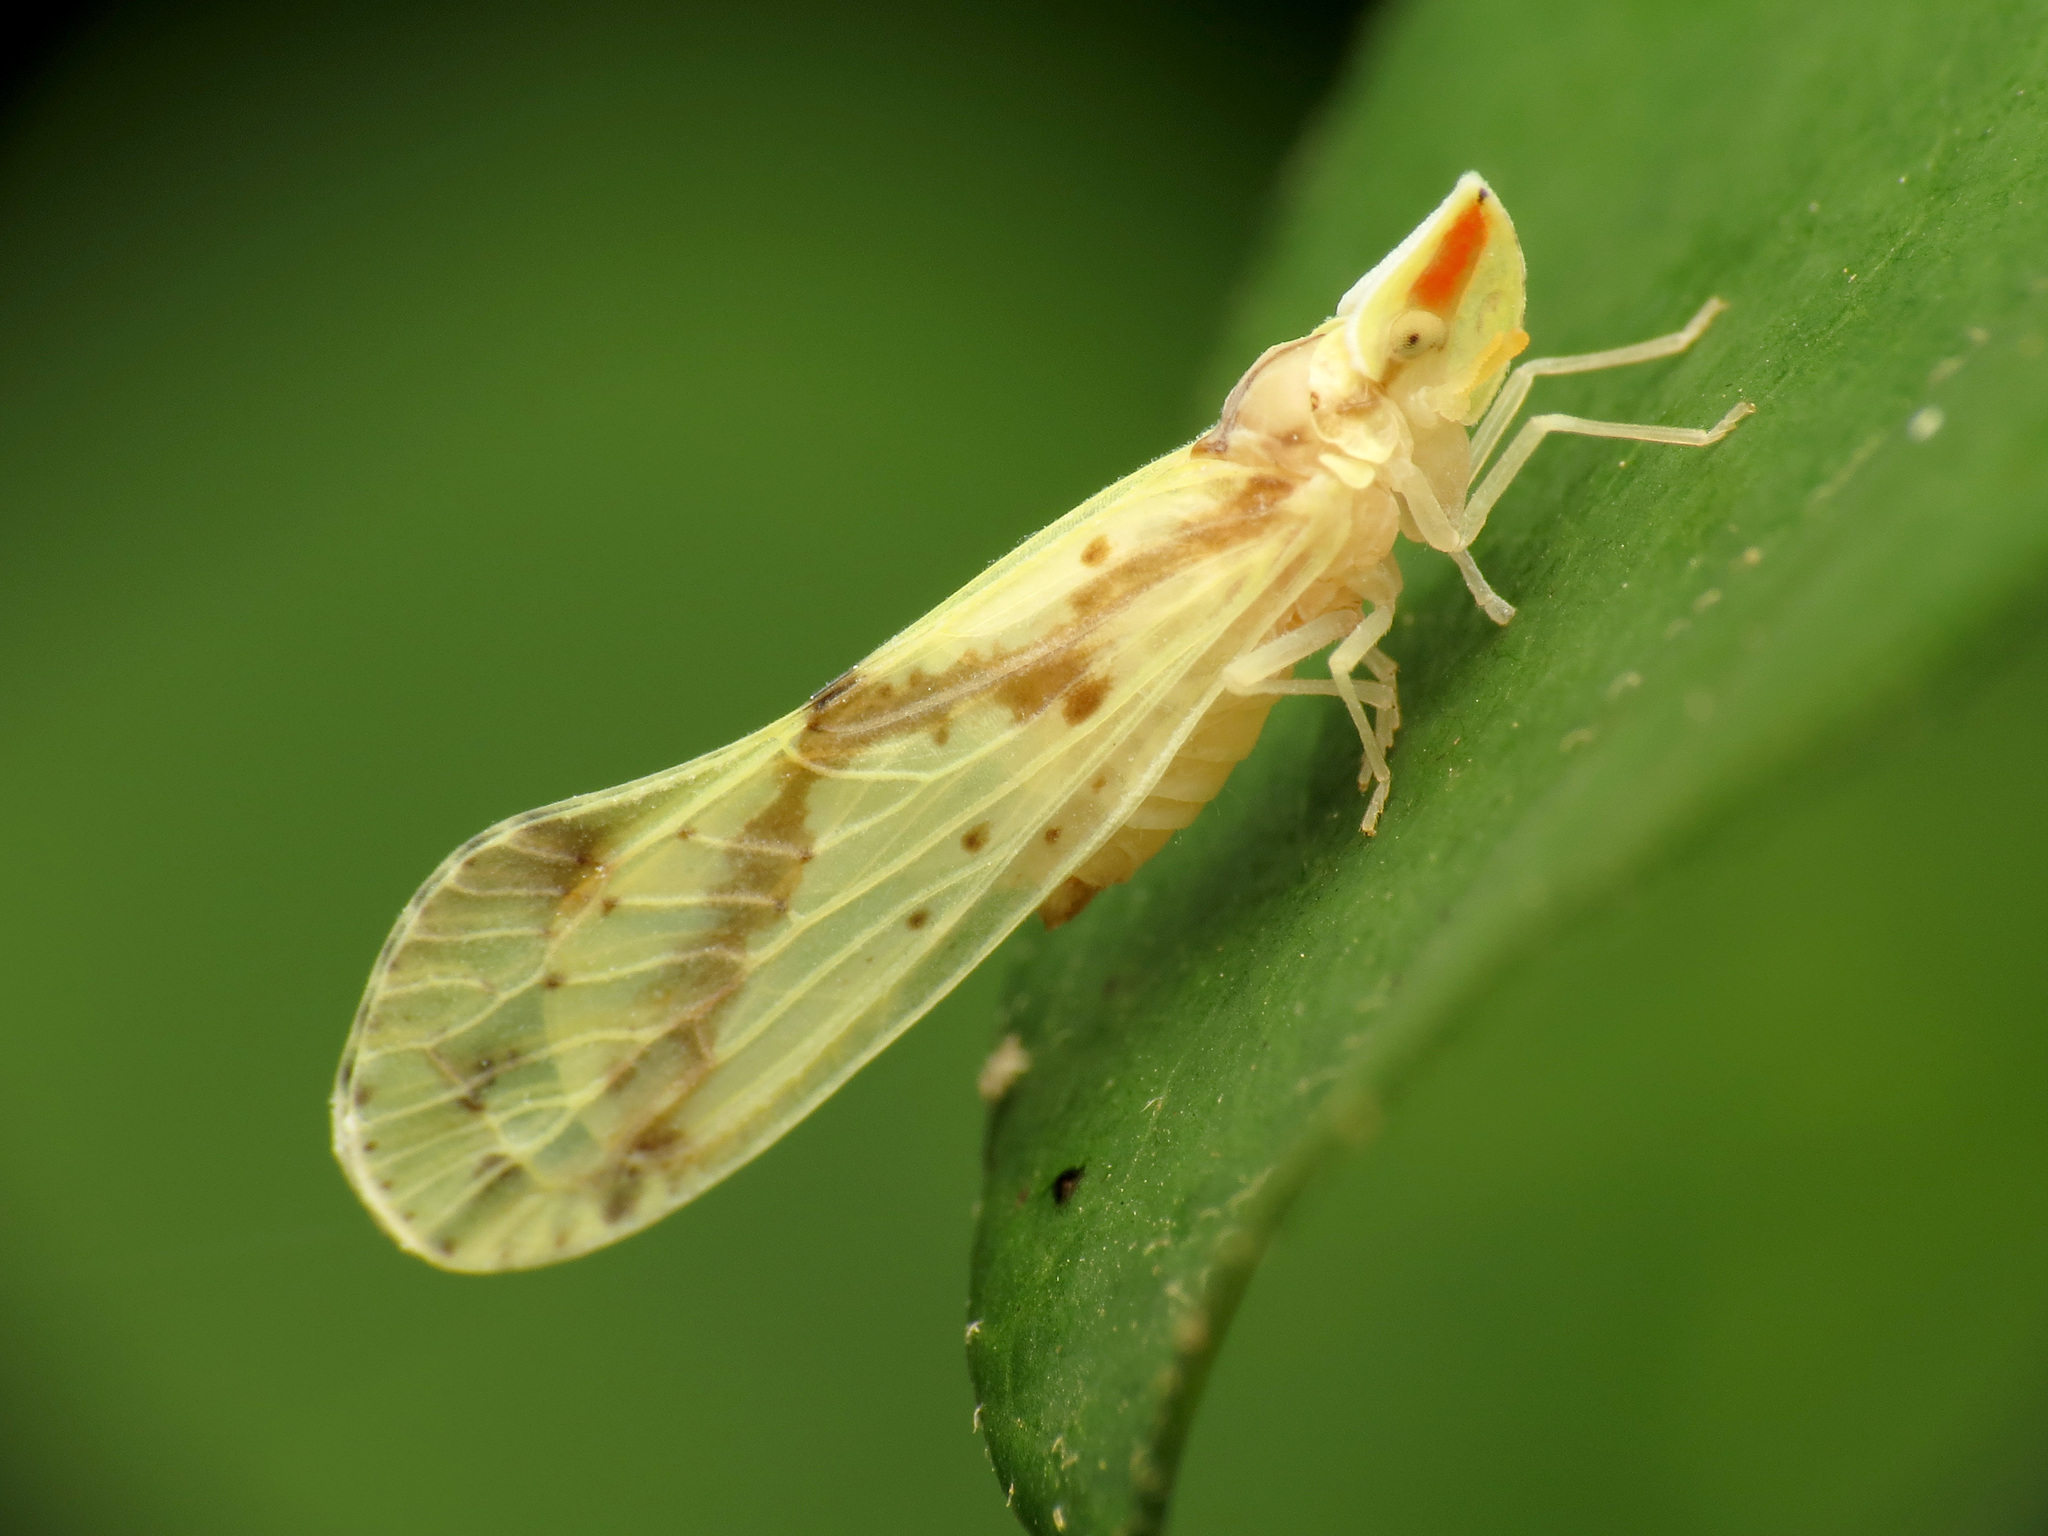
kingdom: Animalia
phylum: Arthropoda
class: Insecta
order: Hemiptera
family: Derbidae
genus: Otiocerus
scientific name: Otiocerus wolfii
